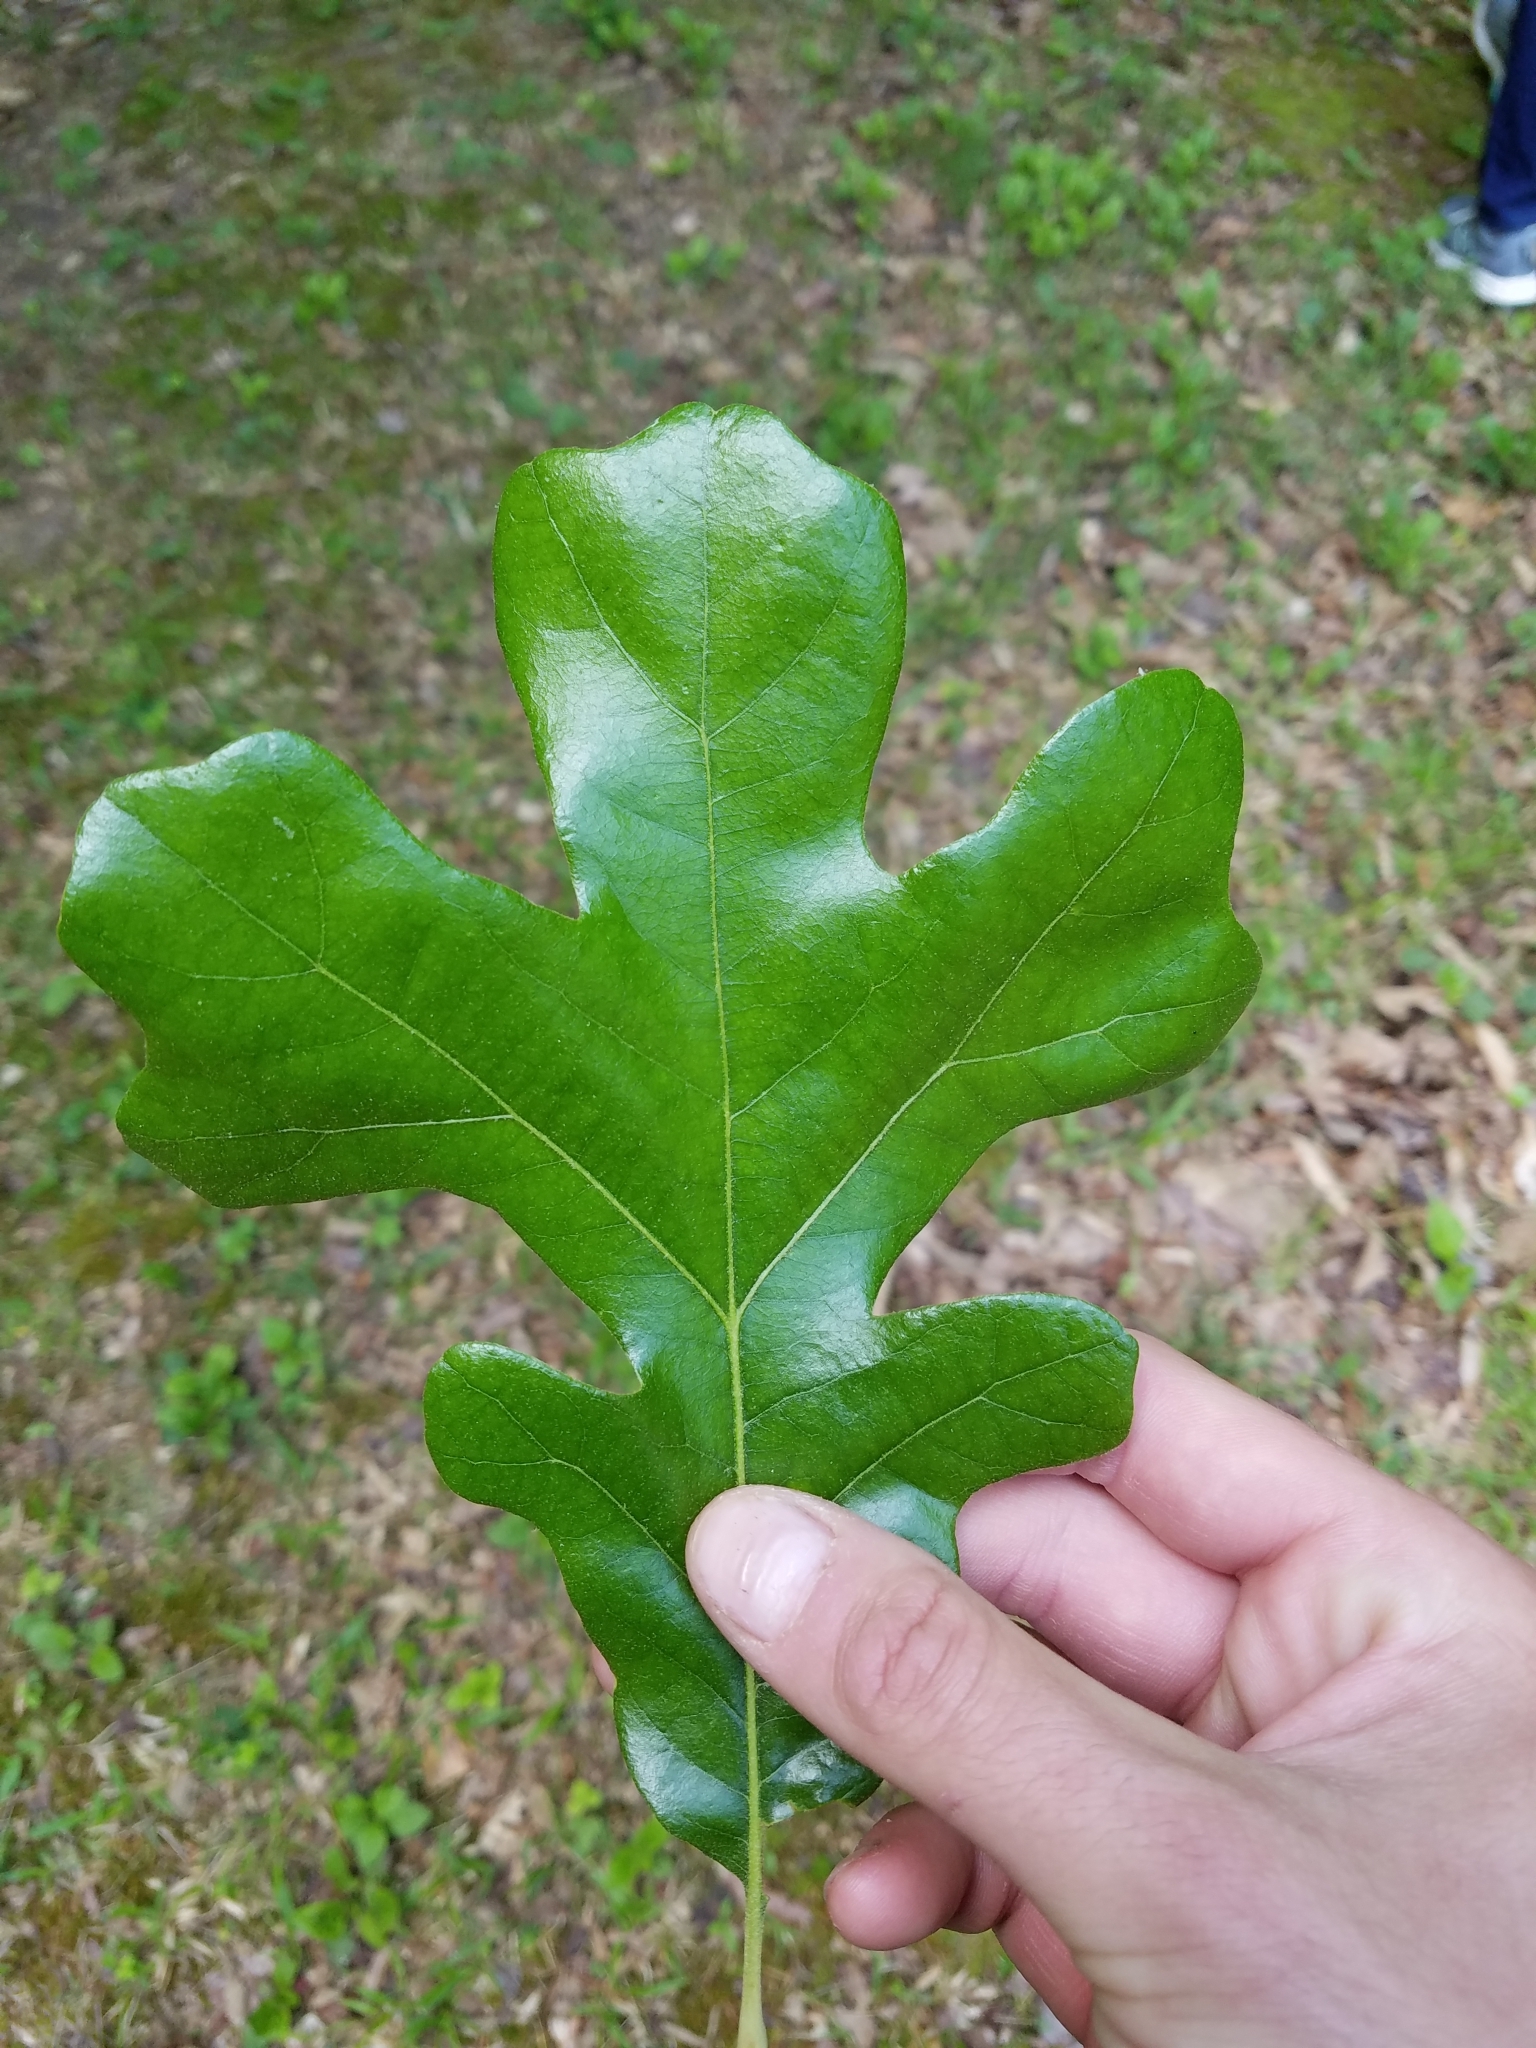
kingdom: Plantae
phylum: Tracheophyta
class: Magnoliopsida
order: Fagales
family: Fagaceae
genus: Quercus
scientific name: Quercus stellata
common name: Post oak
